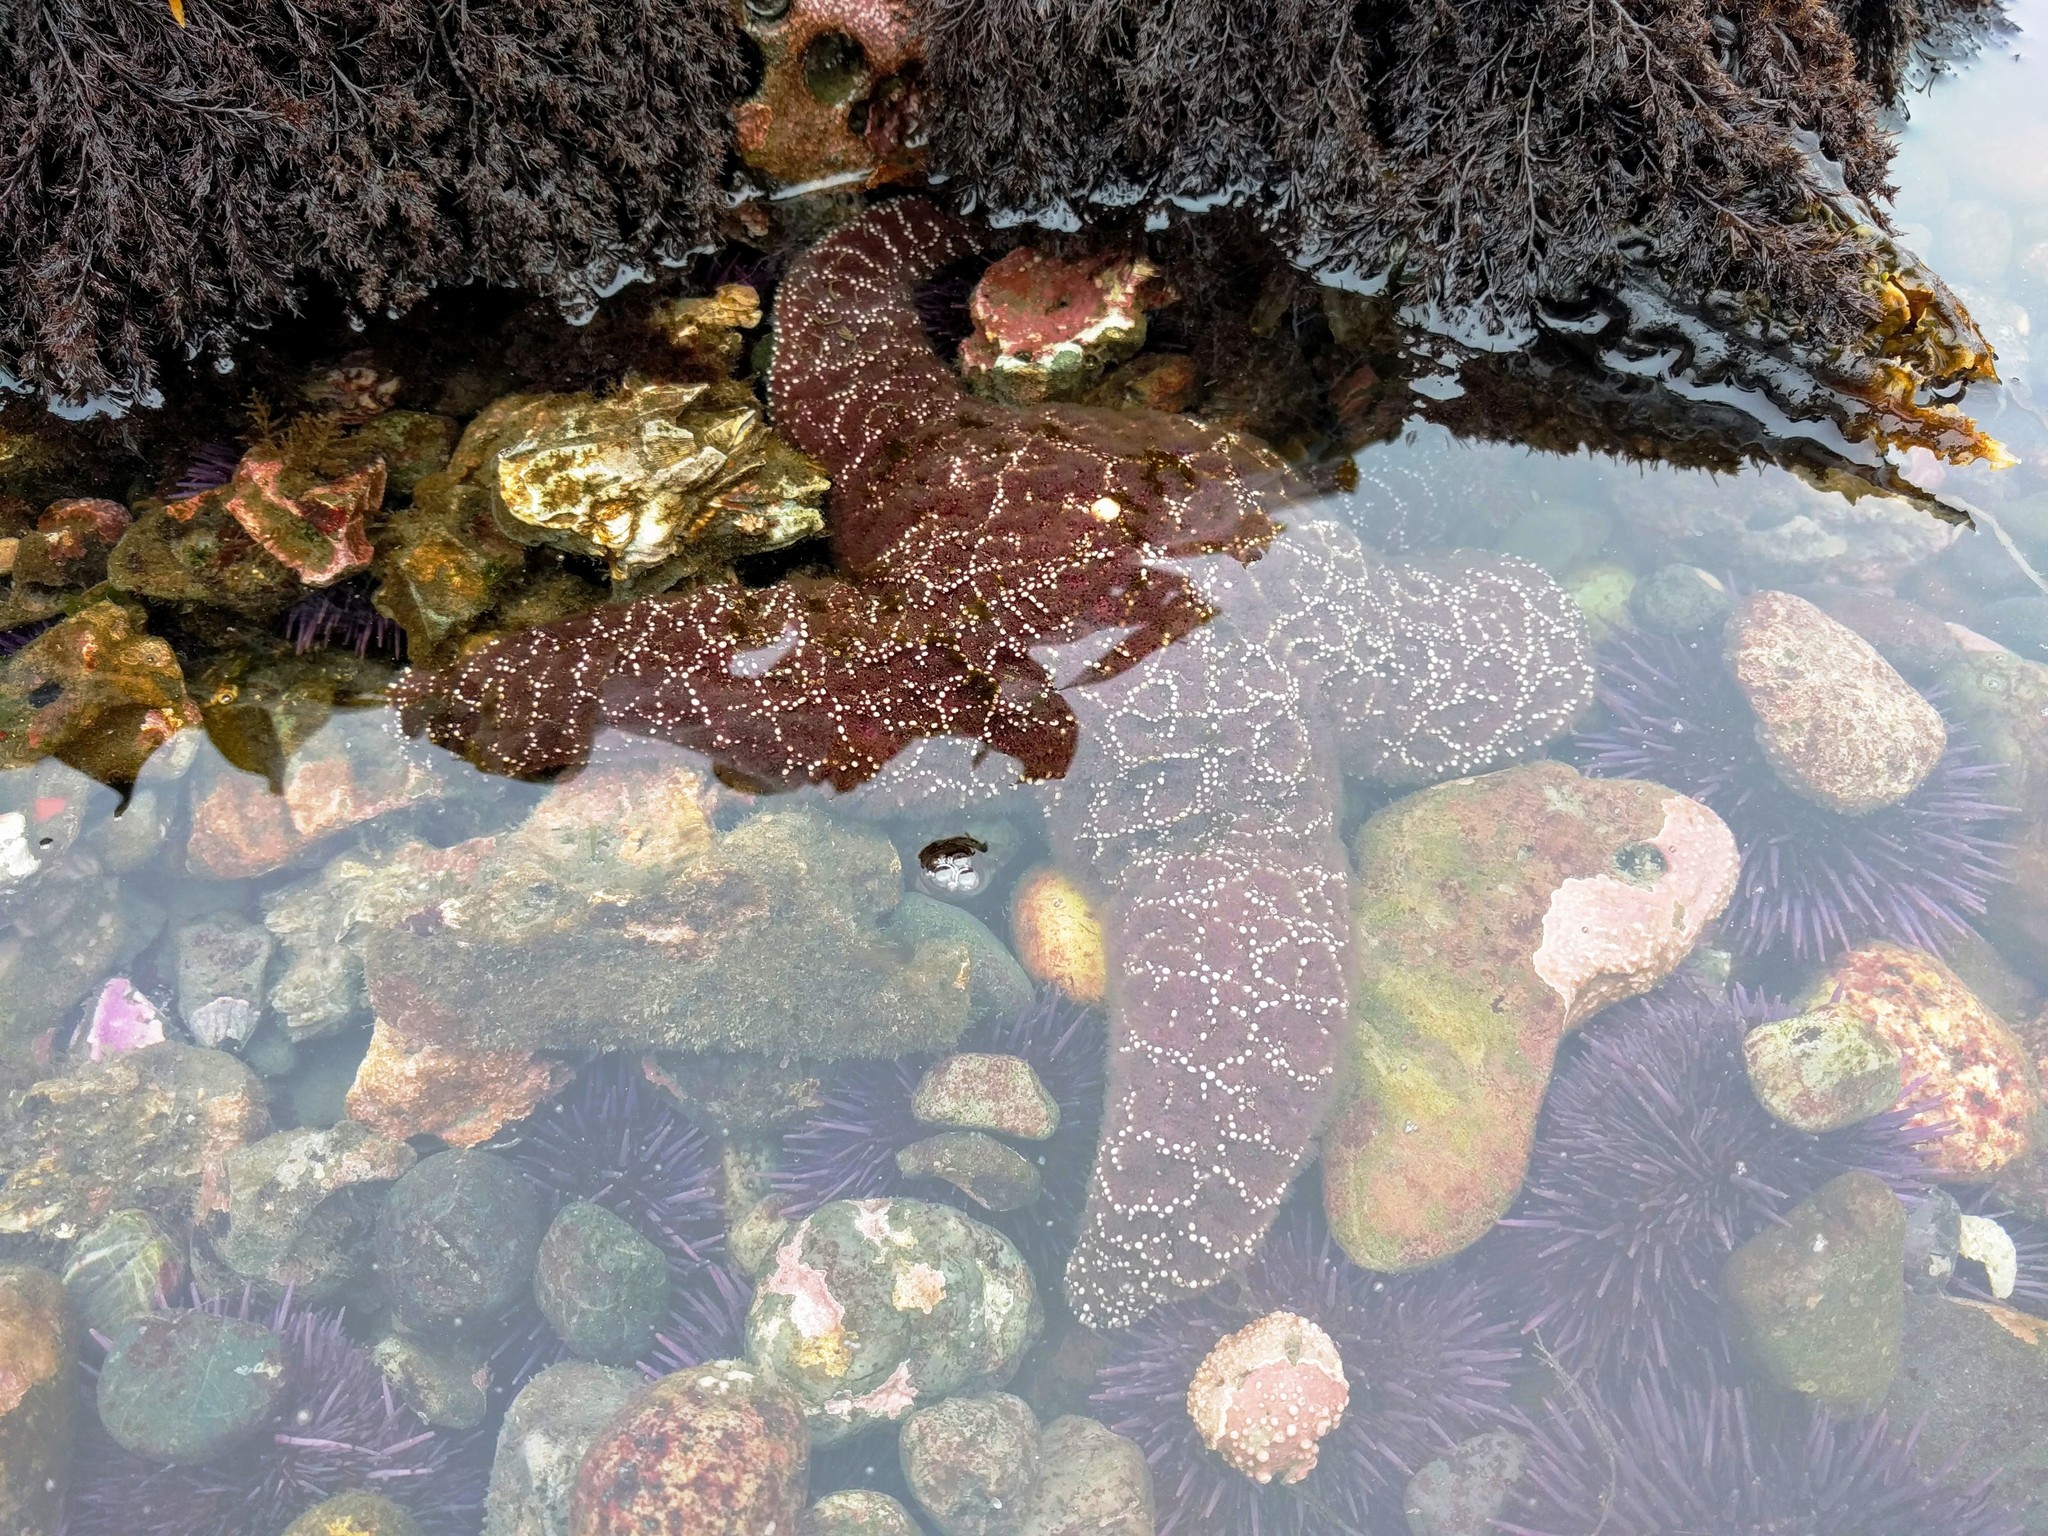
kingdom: Animalia
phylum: Echinodermata
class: Asteroidea
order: Forcipulatida
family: Asteriidae
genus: Pisaster
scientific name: Pisaster ochraceus
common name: Ochre stars
